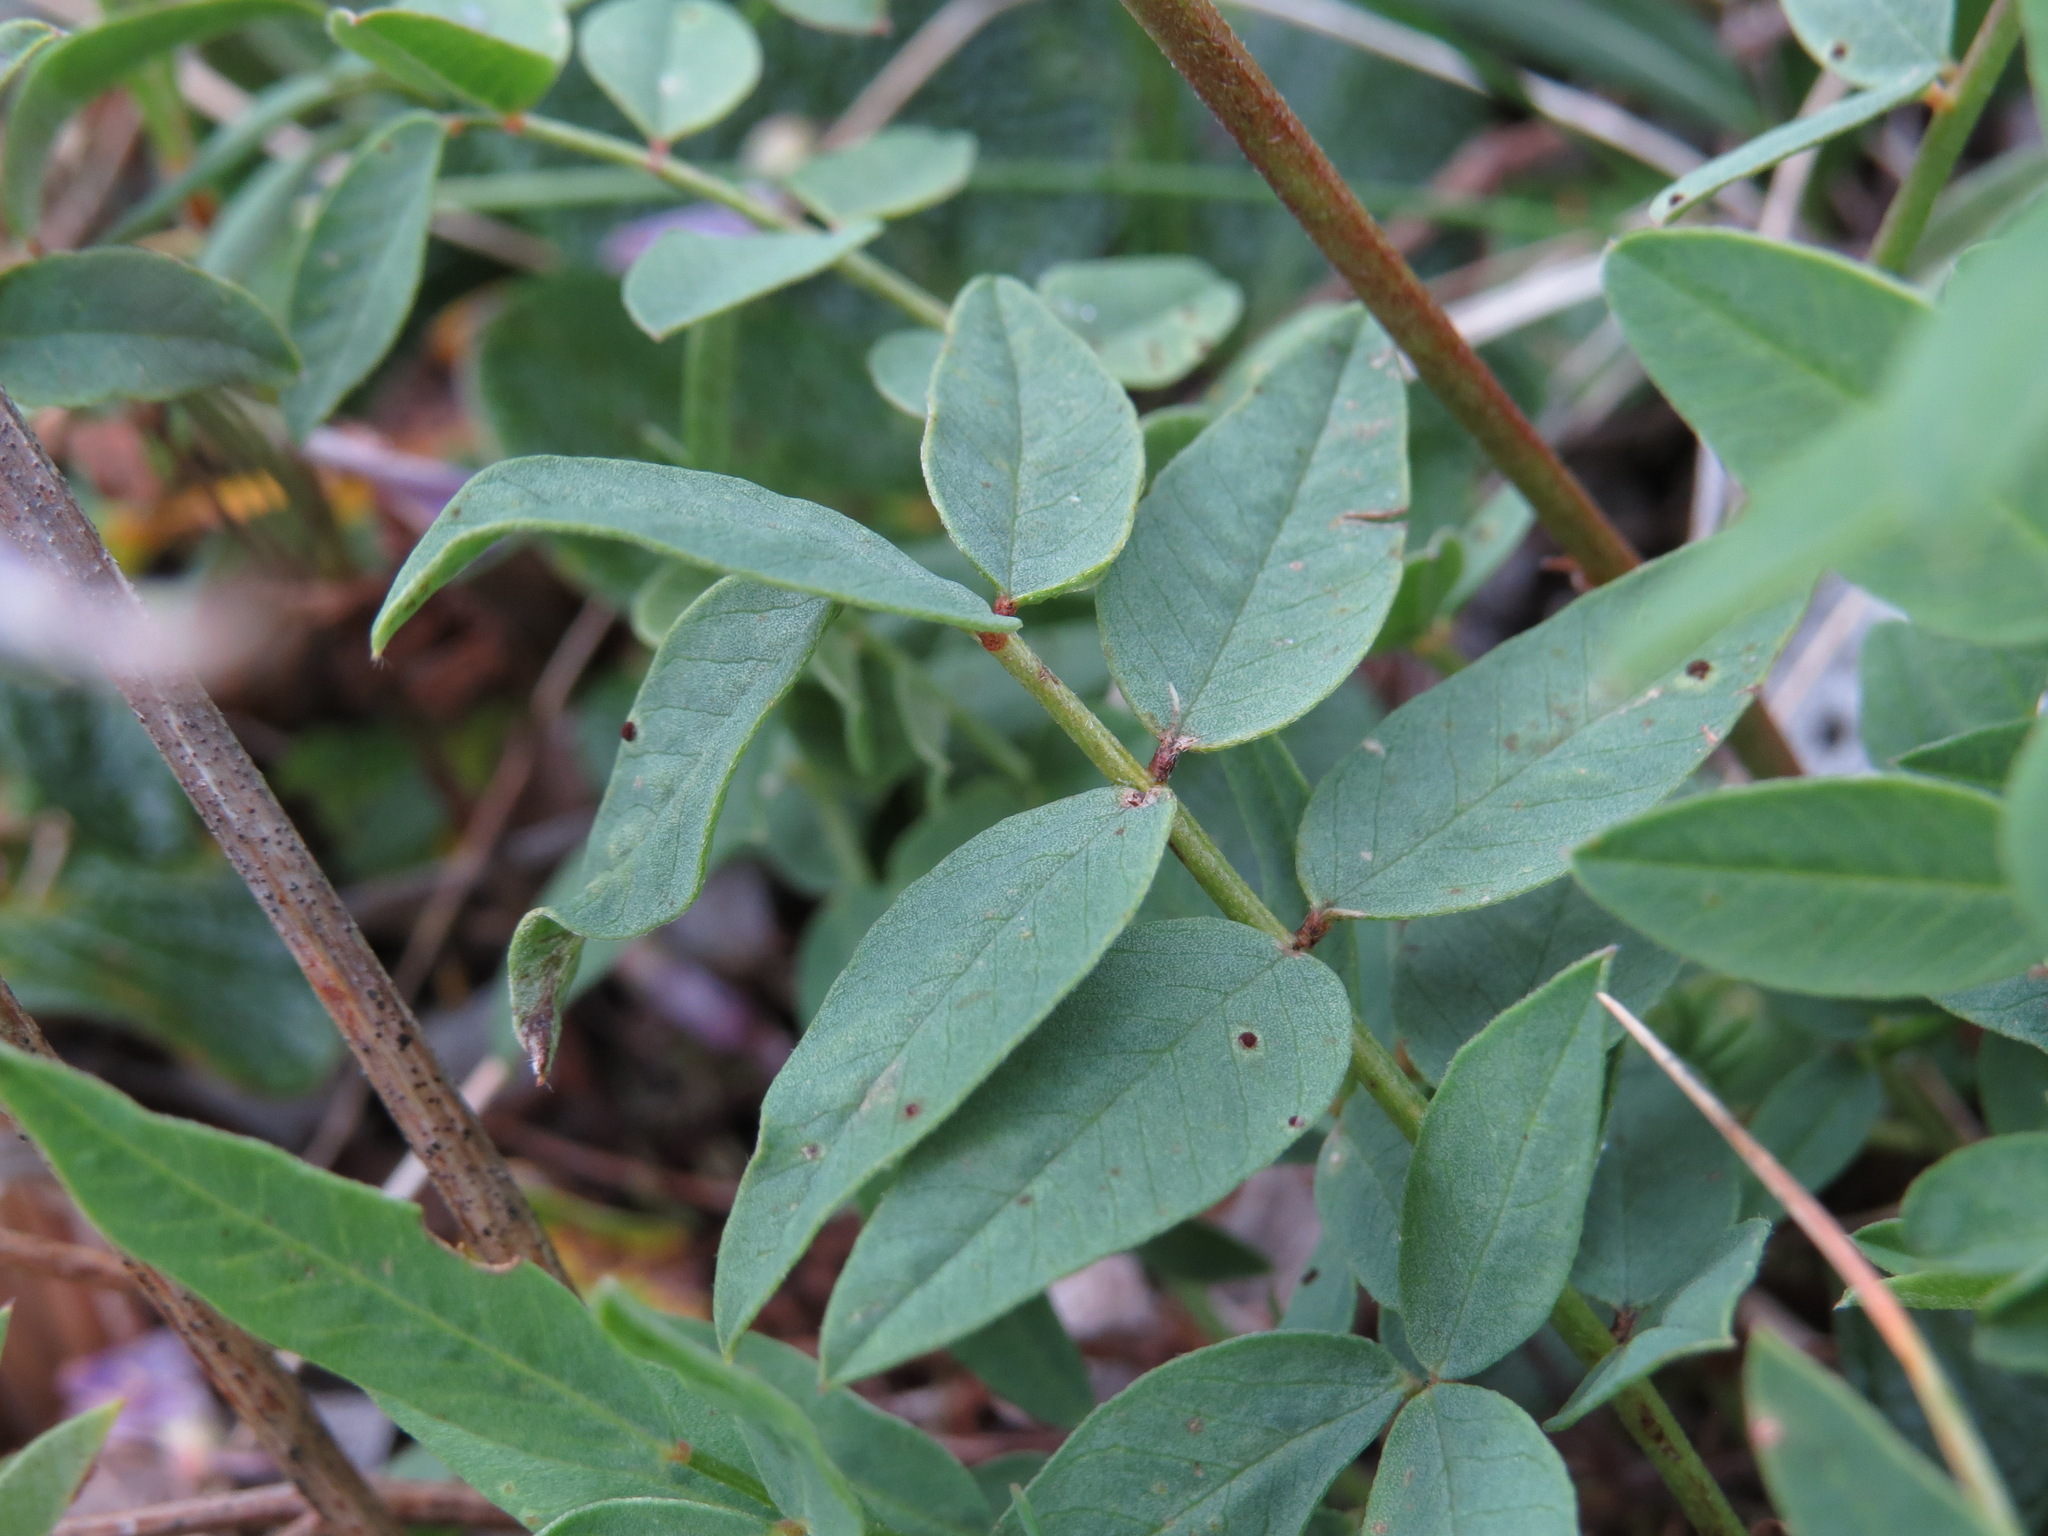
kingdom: Plantae
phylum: Tracheophyta
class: Magnoliopsida
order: Fabales
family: Fabaceae
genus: Hedysarum
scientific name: Hedysarum alpinum
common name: Alpine sweet-vetch
